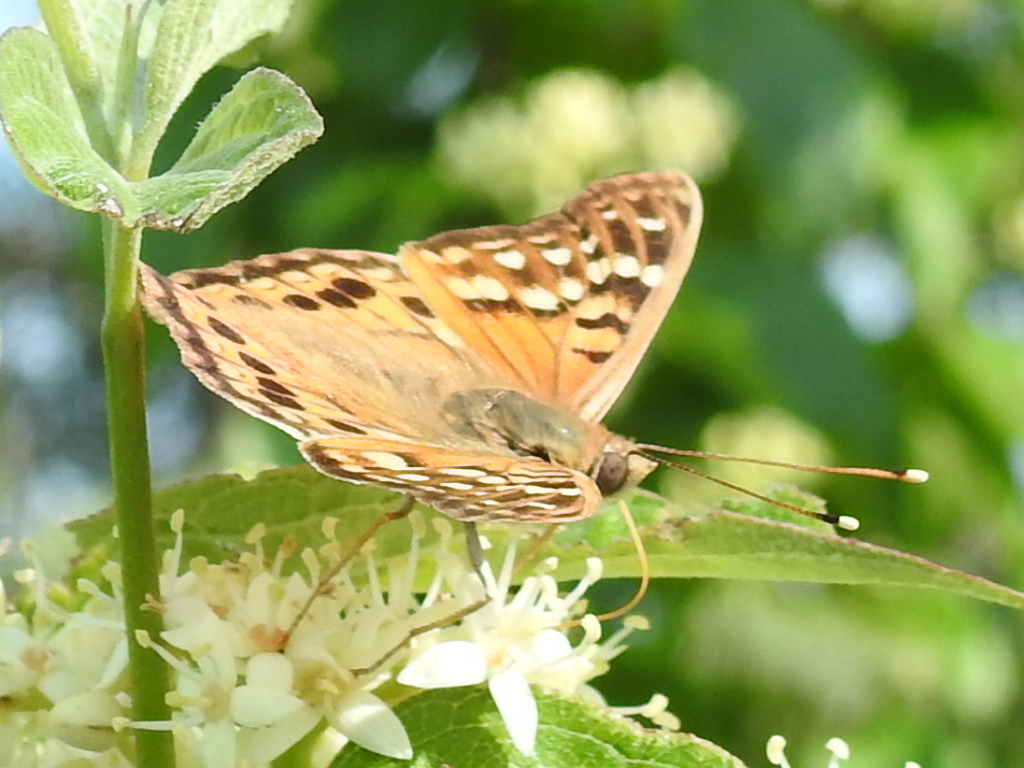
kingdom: Animalia
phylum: Arthropoda
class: Insecta
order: Lepidoptera
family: Nymphalidae
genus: Asterocampa
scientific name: Asterocampa clyton
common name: Tawny emperor
